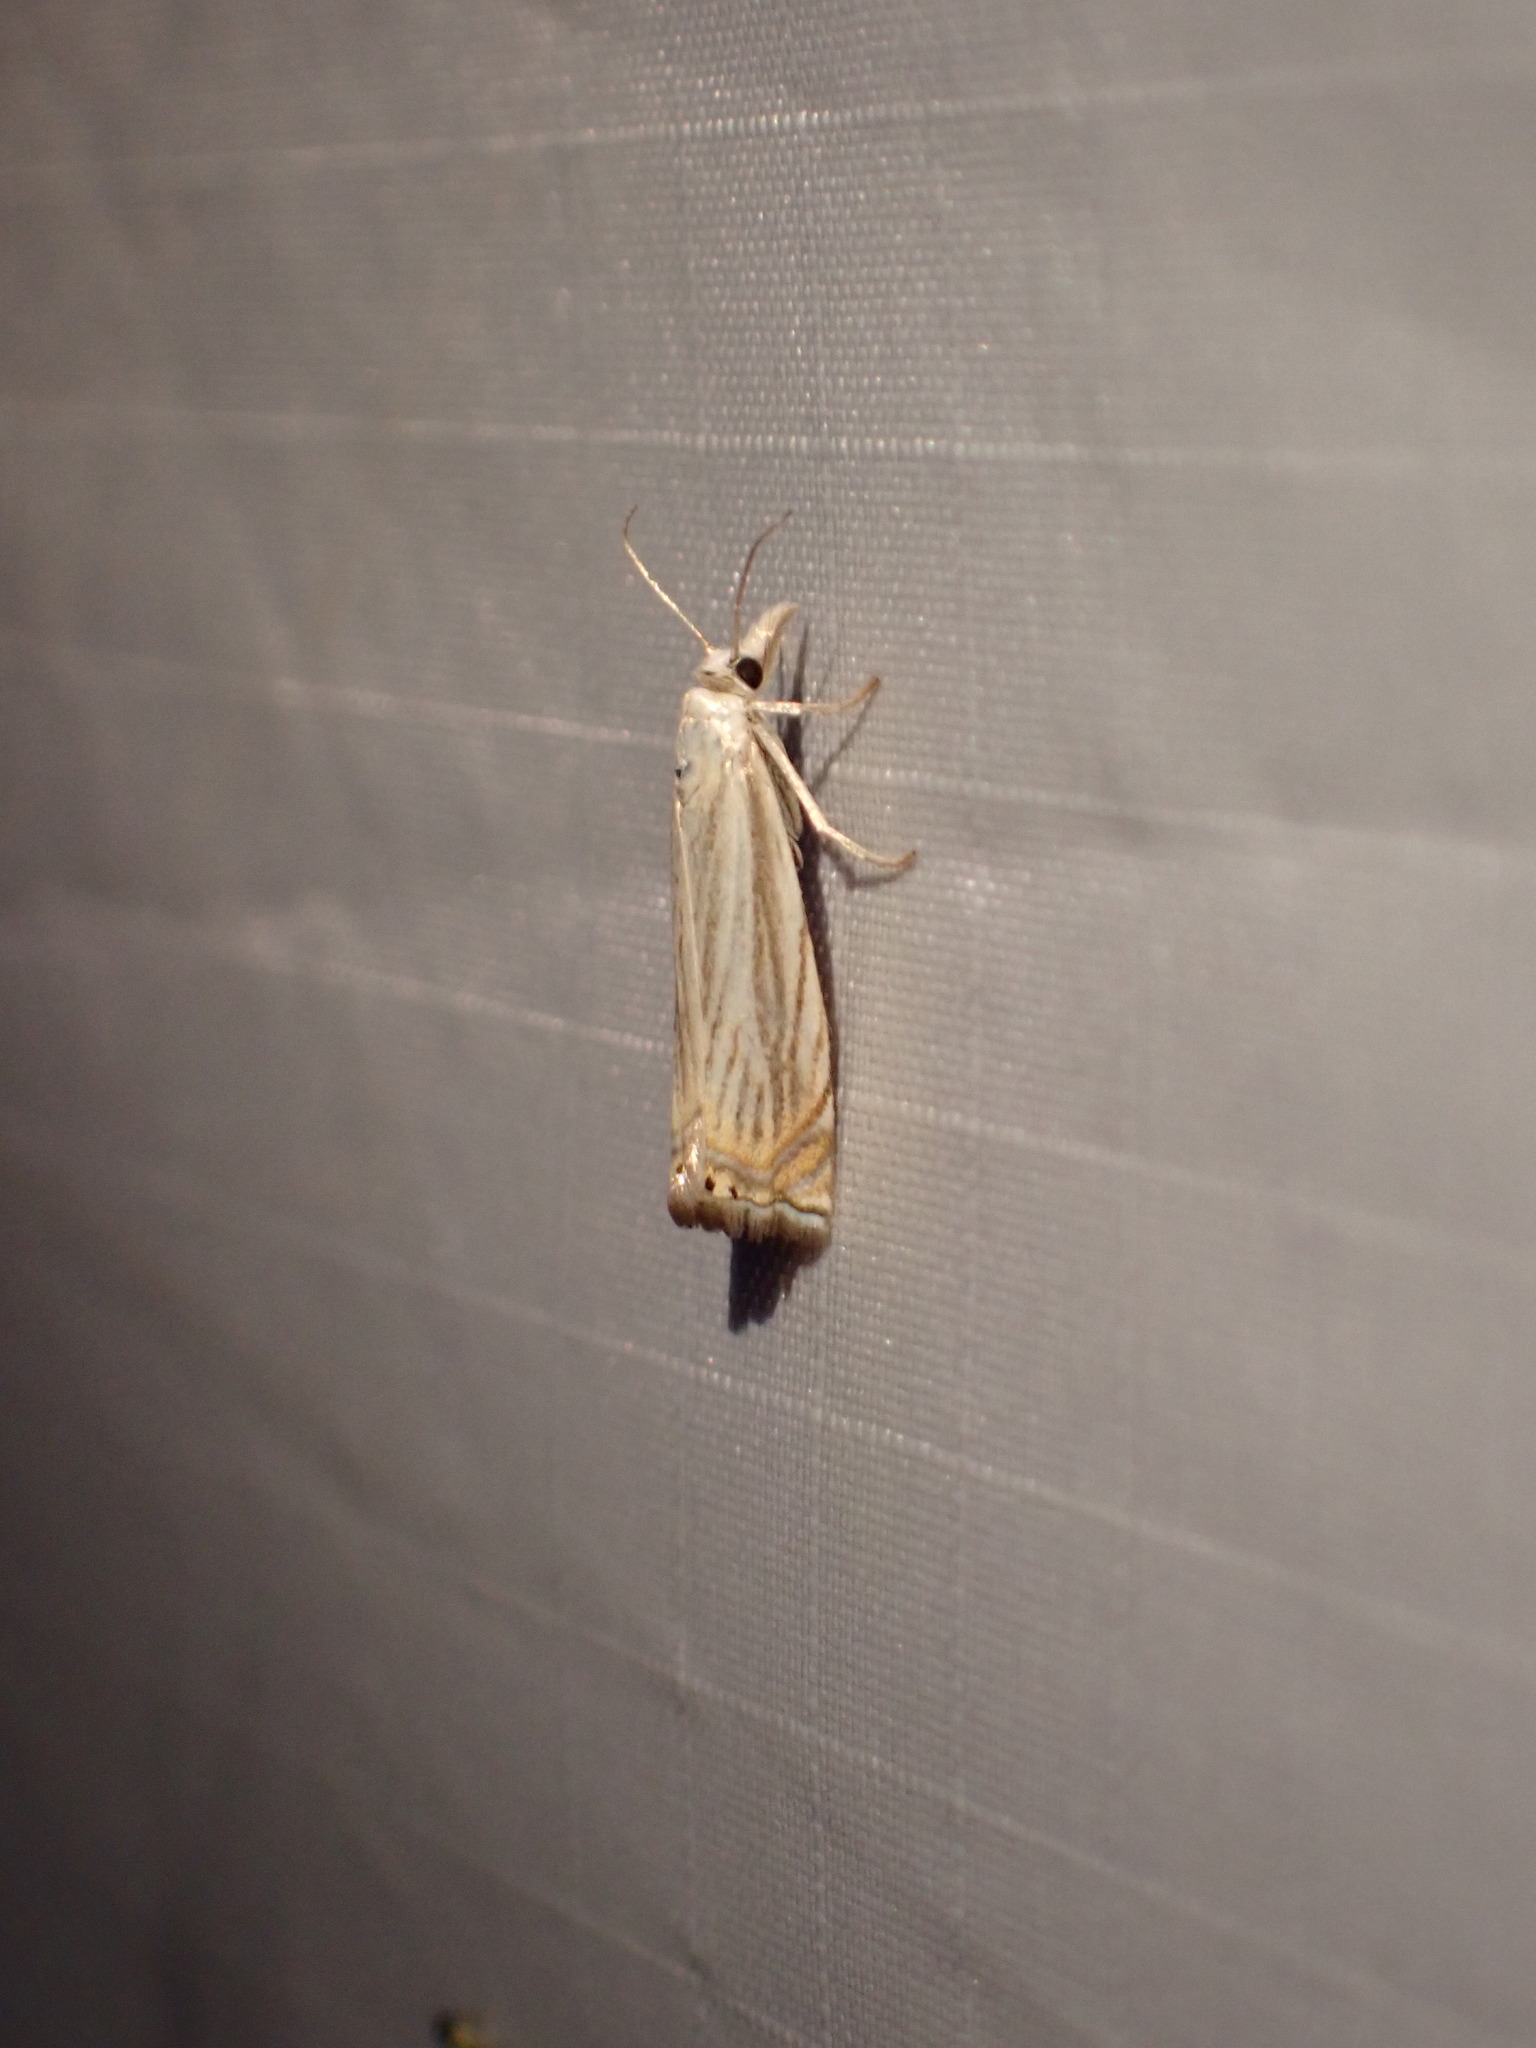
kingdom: Animalia
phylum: Arthropoda
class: Insecta
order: Lepidoptera
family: Crambidae
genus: Chrysoteuchia
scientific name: Chrysoteuchia topiarius
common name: Topiary grass-veneer
